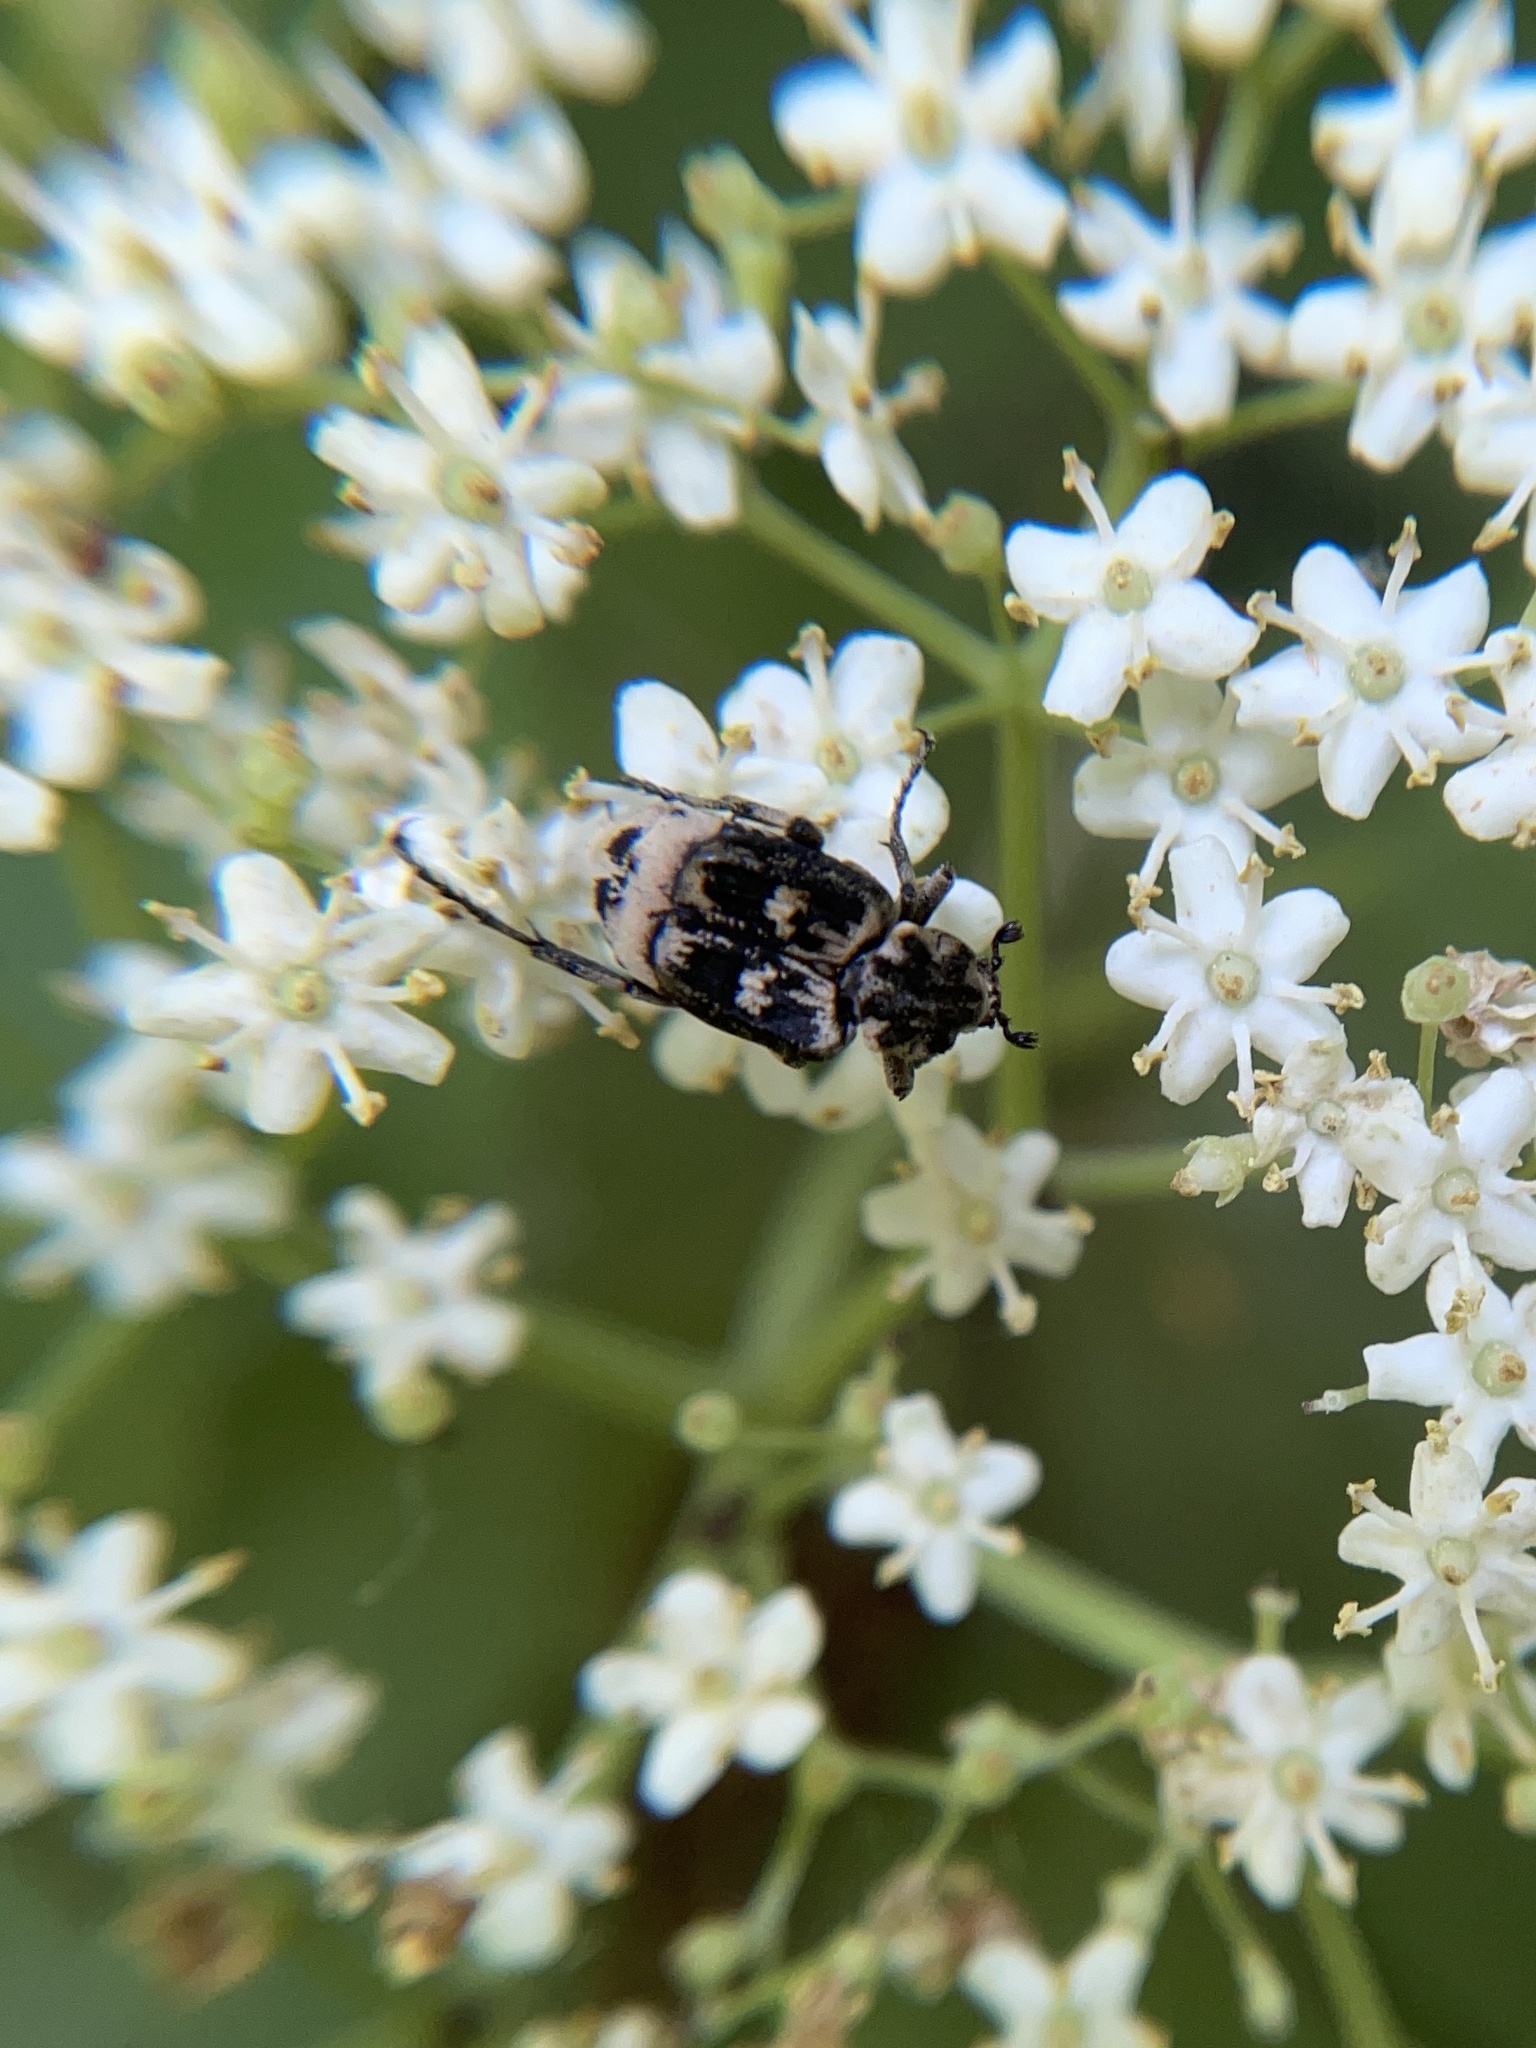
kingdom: Animalia
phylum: Arthropoda
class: Insecta
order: Coleoptera
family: Scarabaeidae
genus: Valgus
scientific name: Valgus hemipterus
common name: Bug flower chafer
